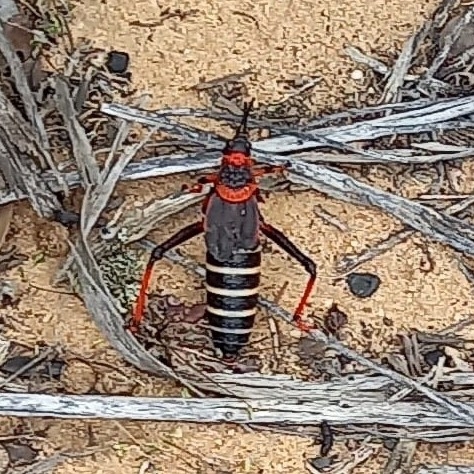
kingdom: Animalia
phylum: Arthropoda
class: Insecta
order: Orthoptera
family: Pyrgomorphidae
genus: Dictyophorus
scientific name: Dictyophorus spumans
